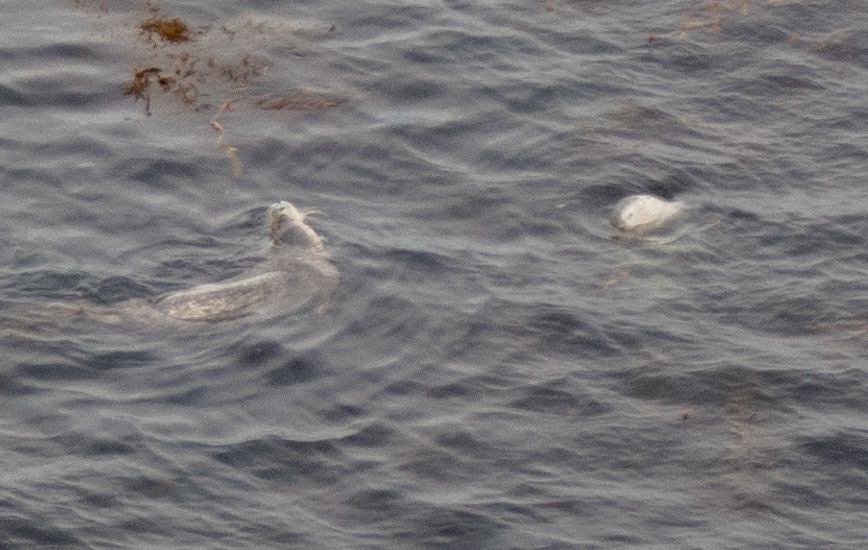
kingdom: Animalia
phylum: Chordata
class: Mammalia
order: Carnivora
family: Phocidae
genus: Phoca
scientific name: Phoca vitulina
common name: Harbor seal
